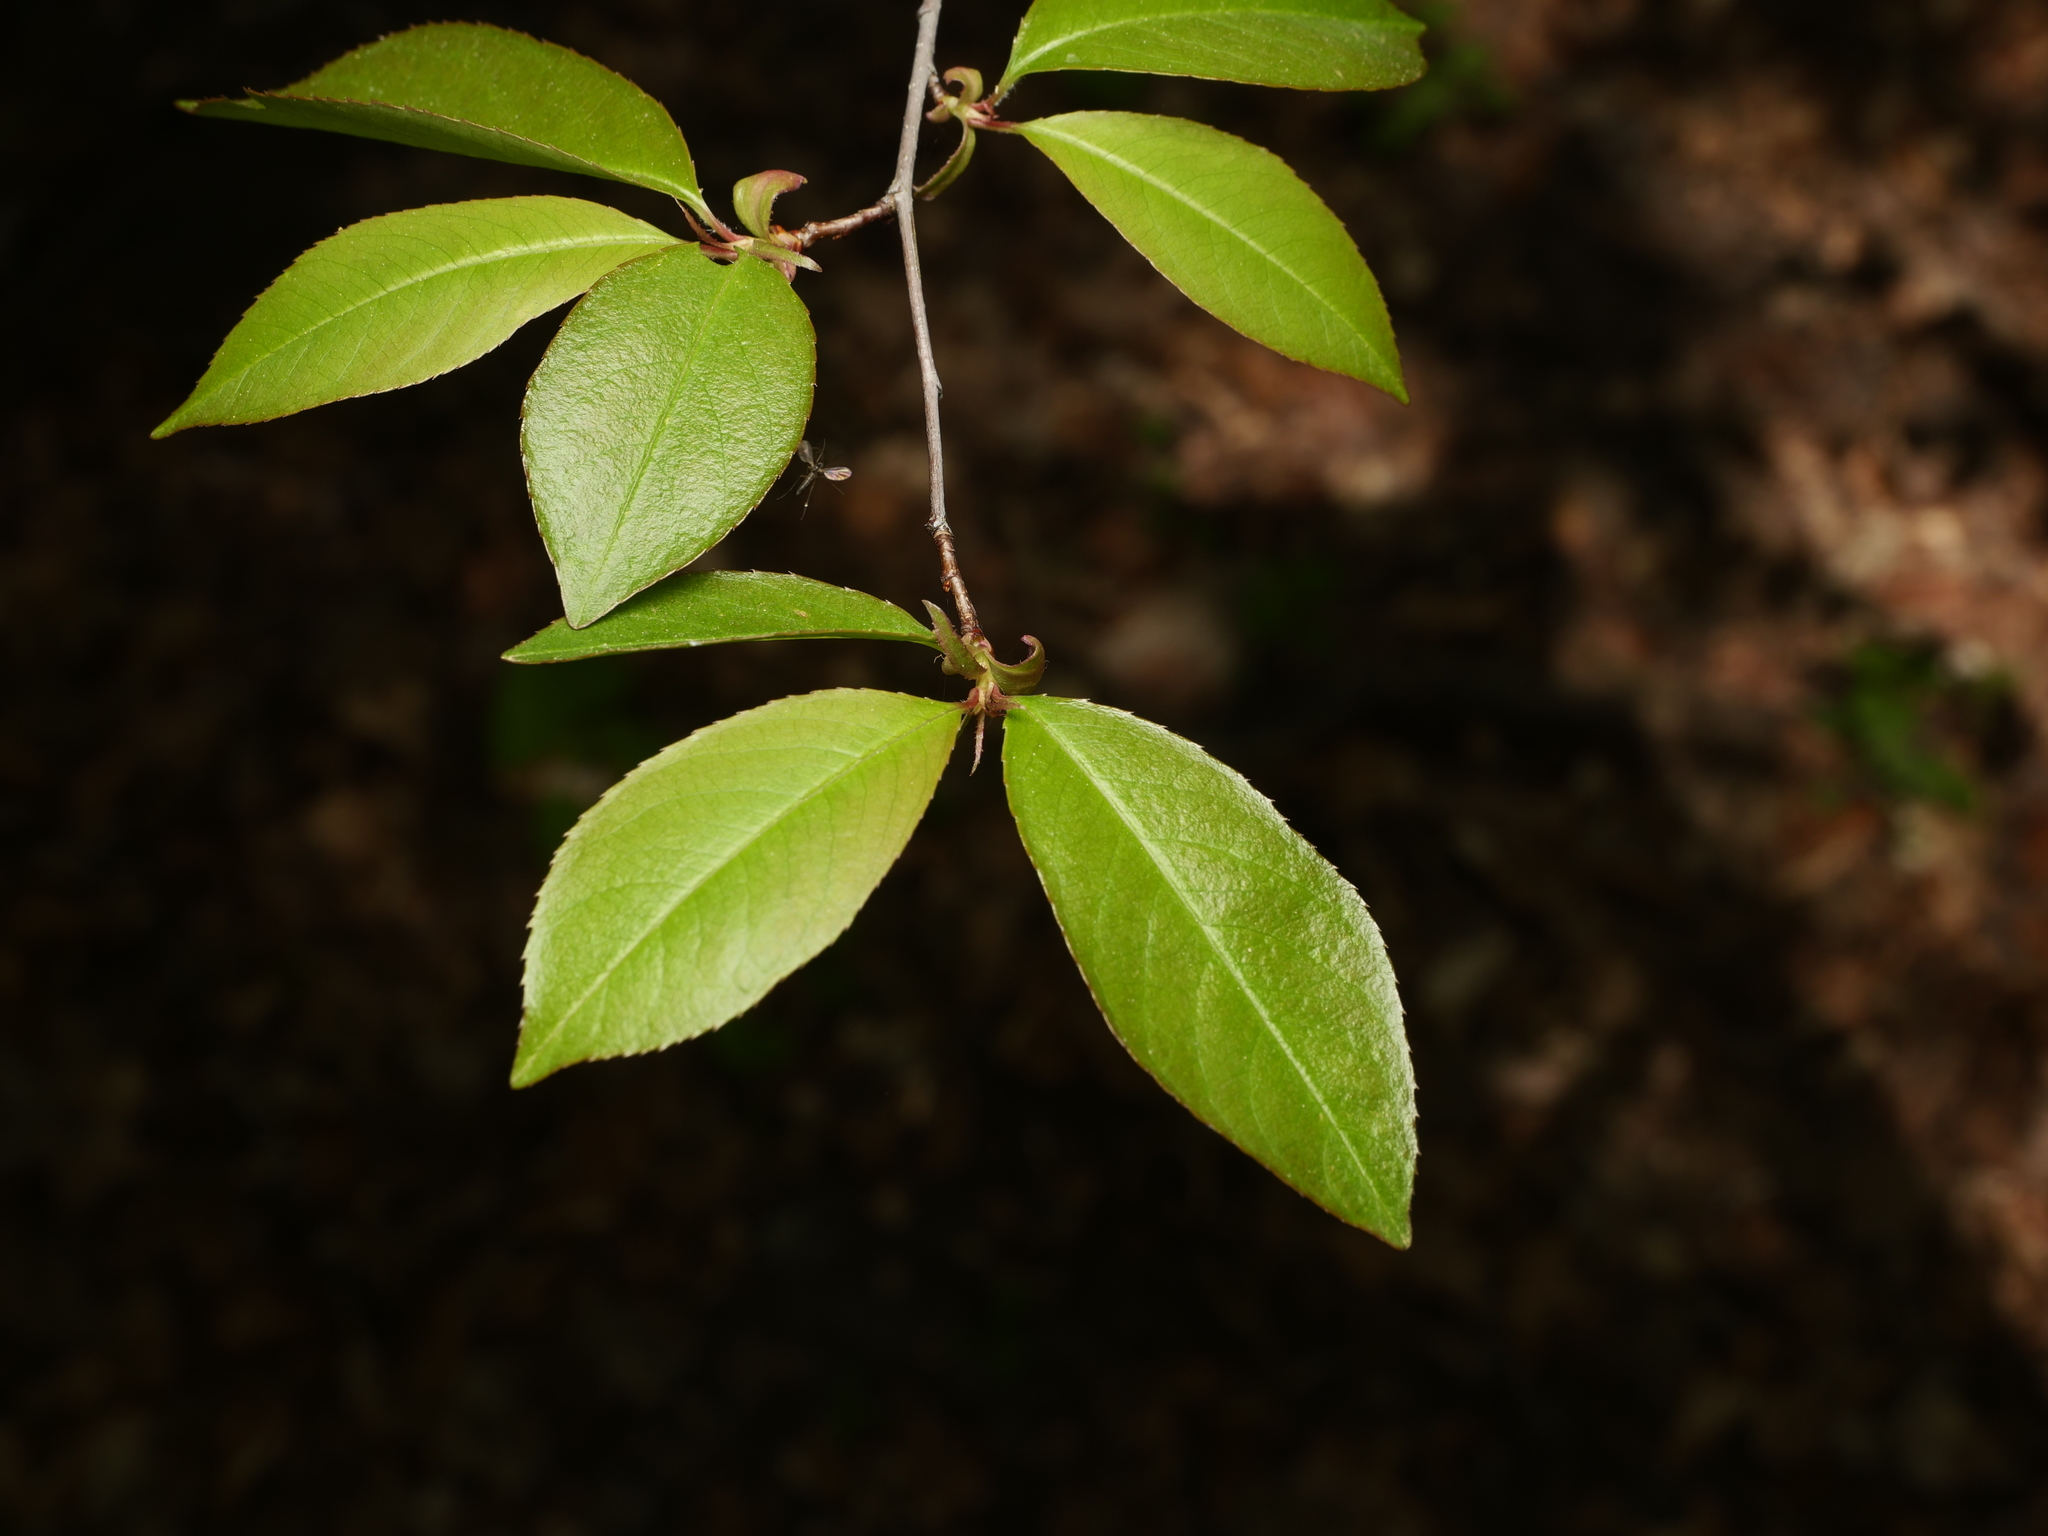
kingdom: Plantae
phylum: Tracheophyta
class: Magnoliopsida
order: Rosales
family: Rosaceae
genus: Prunus
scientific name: Prunus serotina
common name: Black cherry
